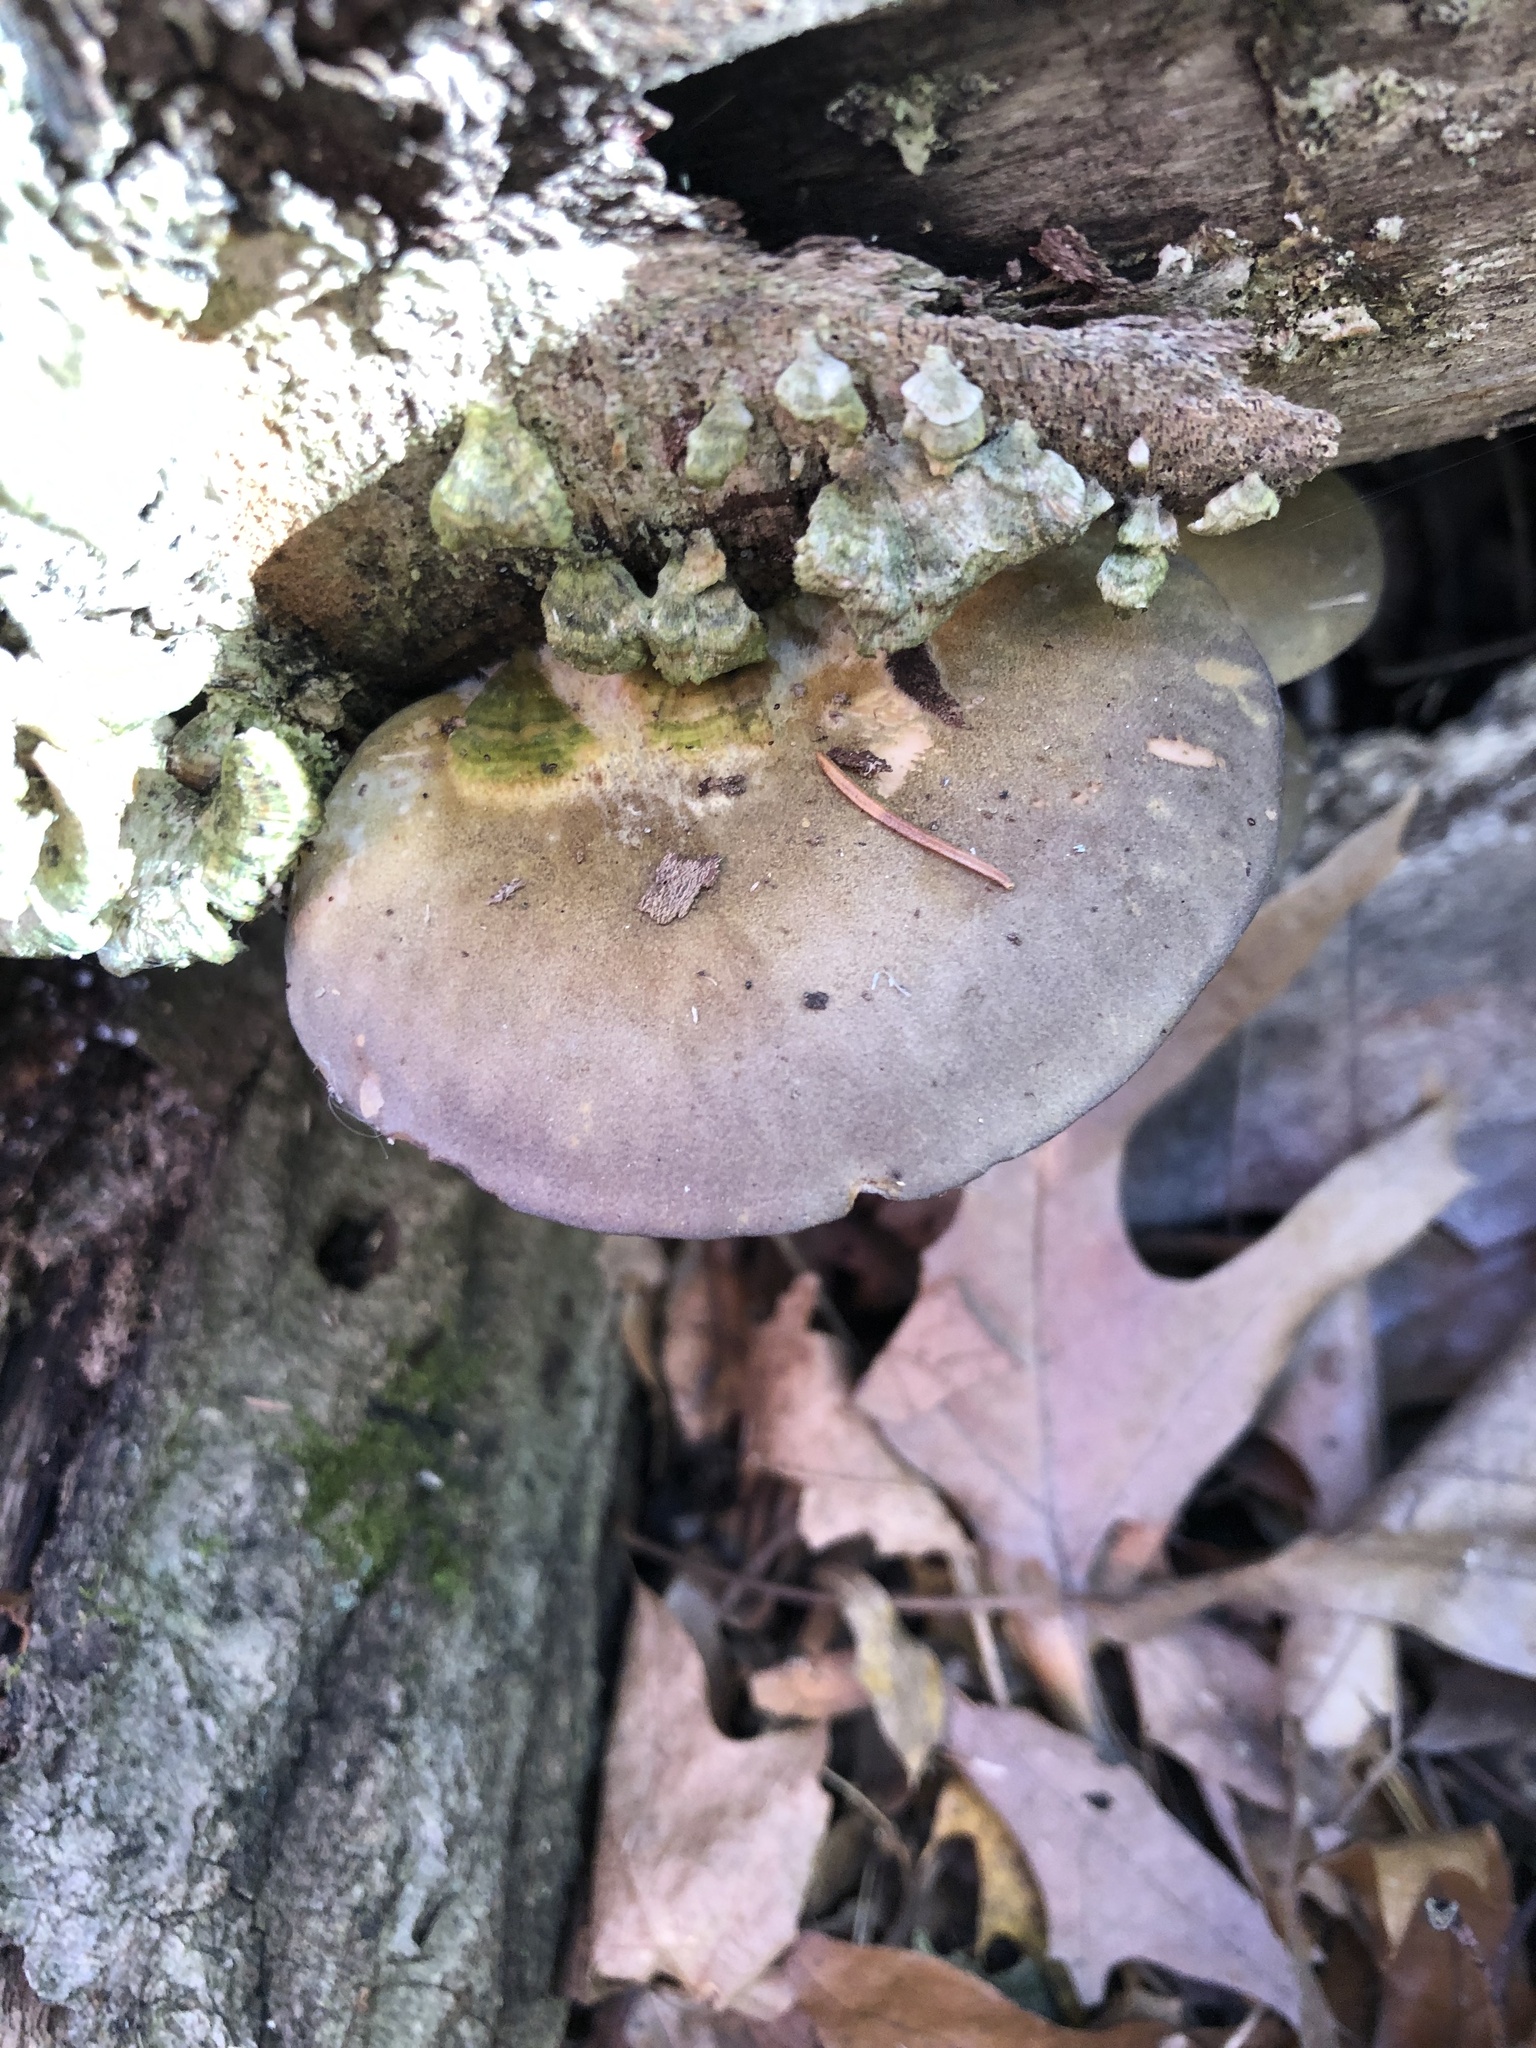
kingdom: Fungi
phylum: Basidiomycota
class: Agaricomycetes
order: Agaricales
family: Sarcomyxaceae
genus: Sarcomyxa
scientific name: Sarcomyxa serotina
